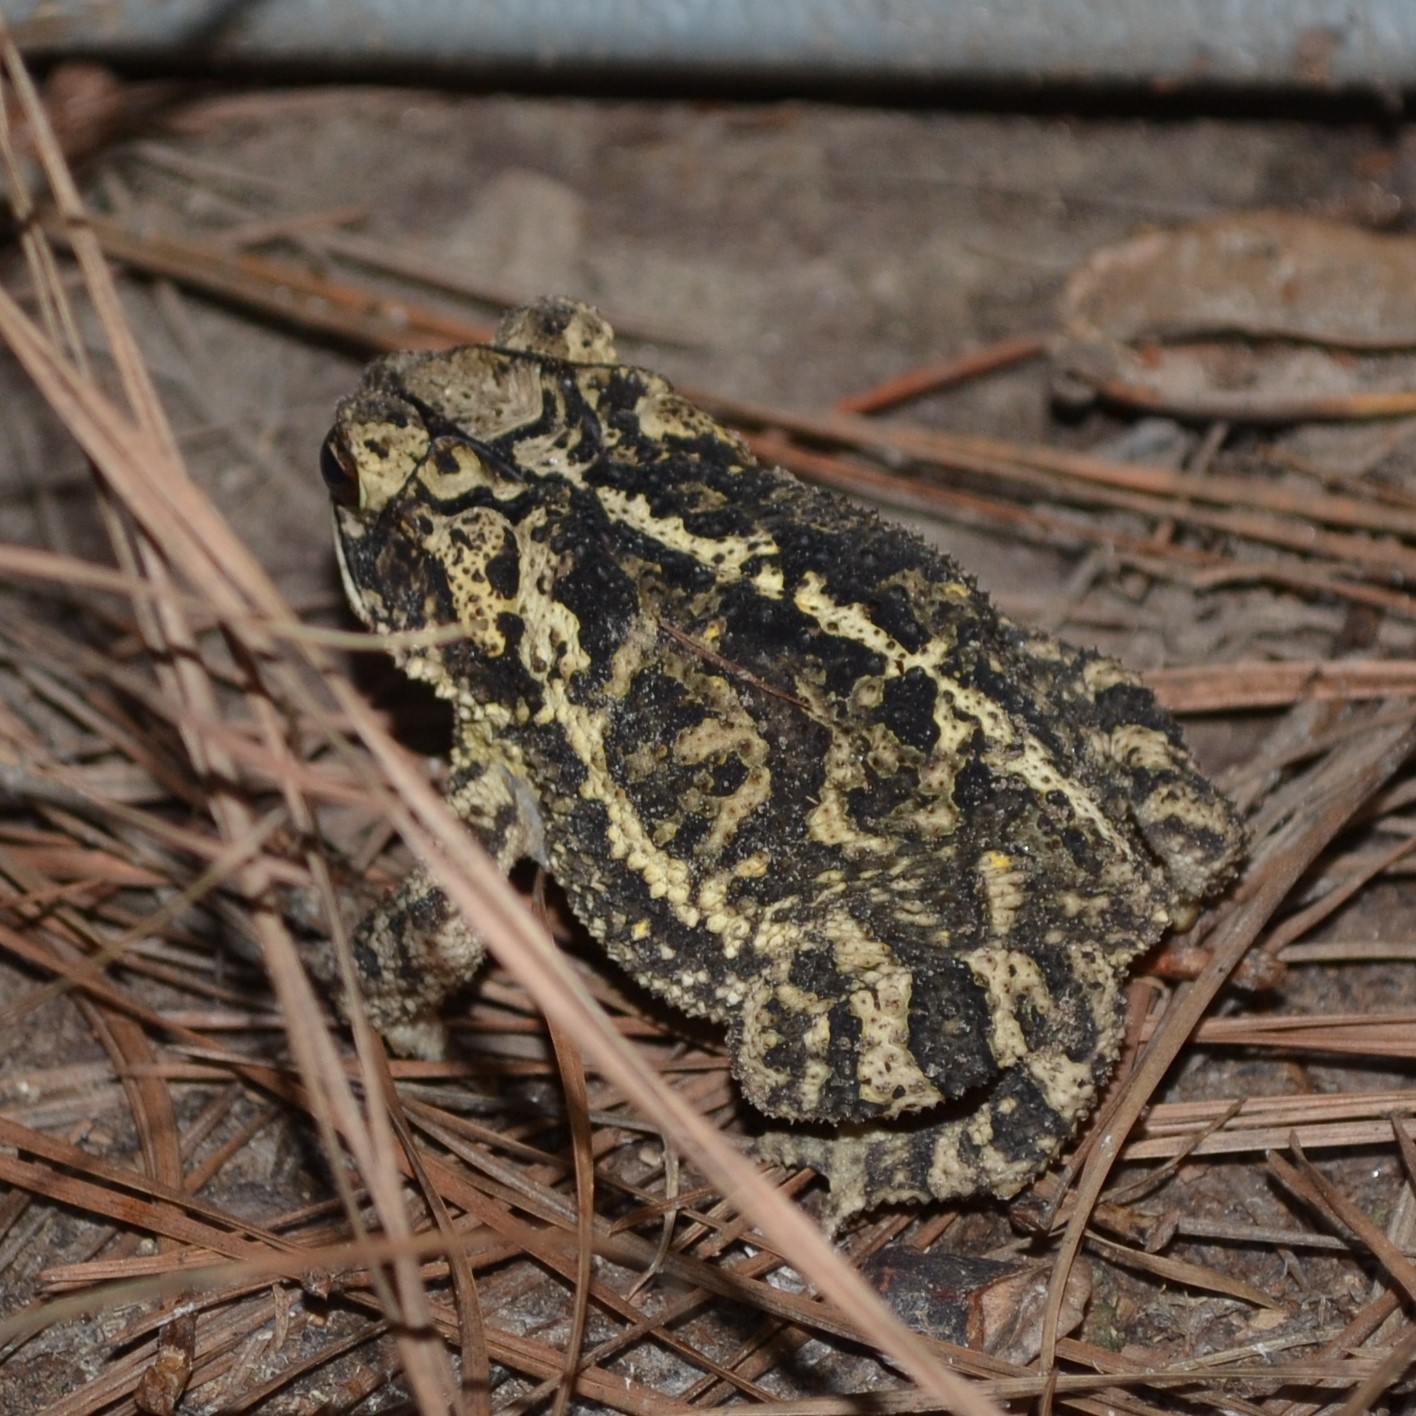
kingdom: Animalia
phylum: Chordata
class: Amphibia
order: Anura
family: Bufonidae
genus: Incilius
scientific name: Incilius nebulifer
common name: Gulf coast toad
